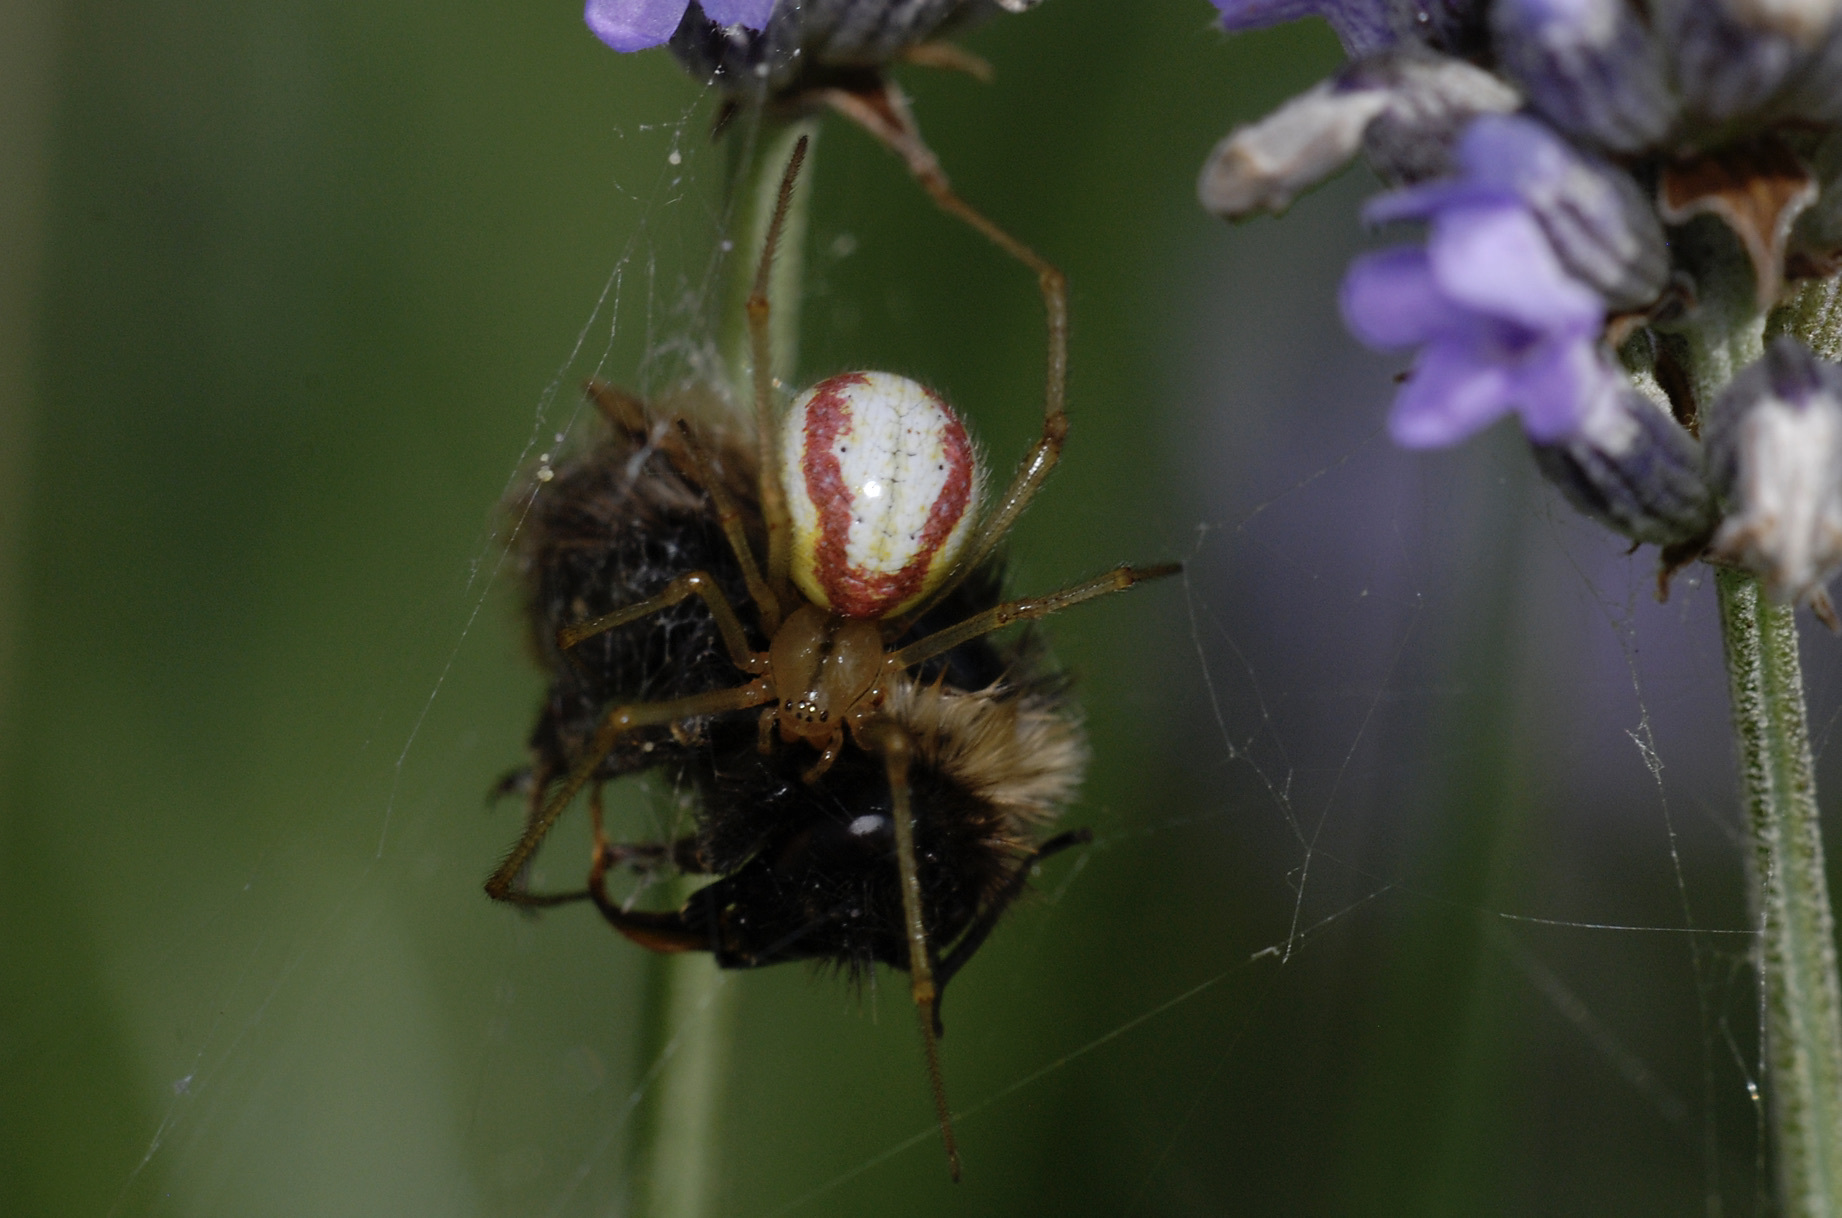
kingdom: Animalia
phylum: Arthropoda
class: Arachnida
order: Araneae
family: Theridiidae
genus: Enoplognatha
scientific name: Enoplognatha ovata
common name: Common candy-striped spider
